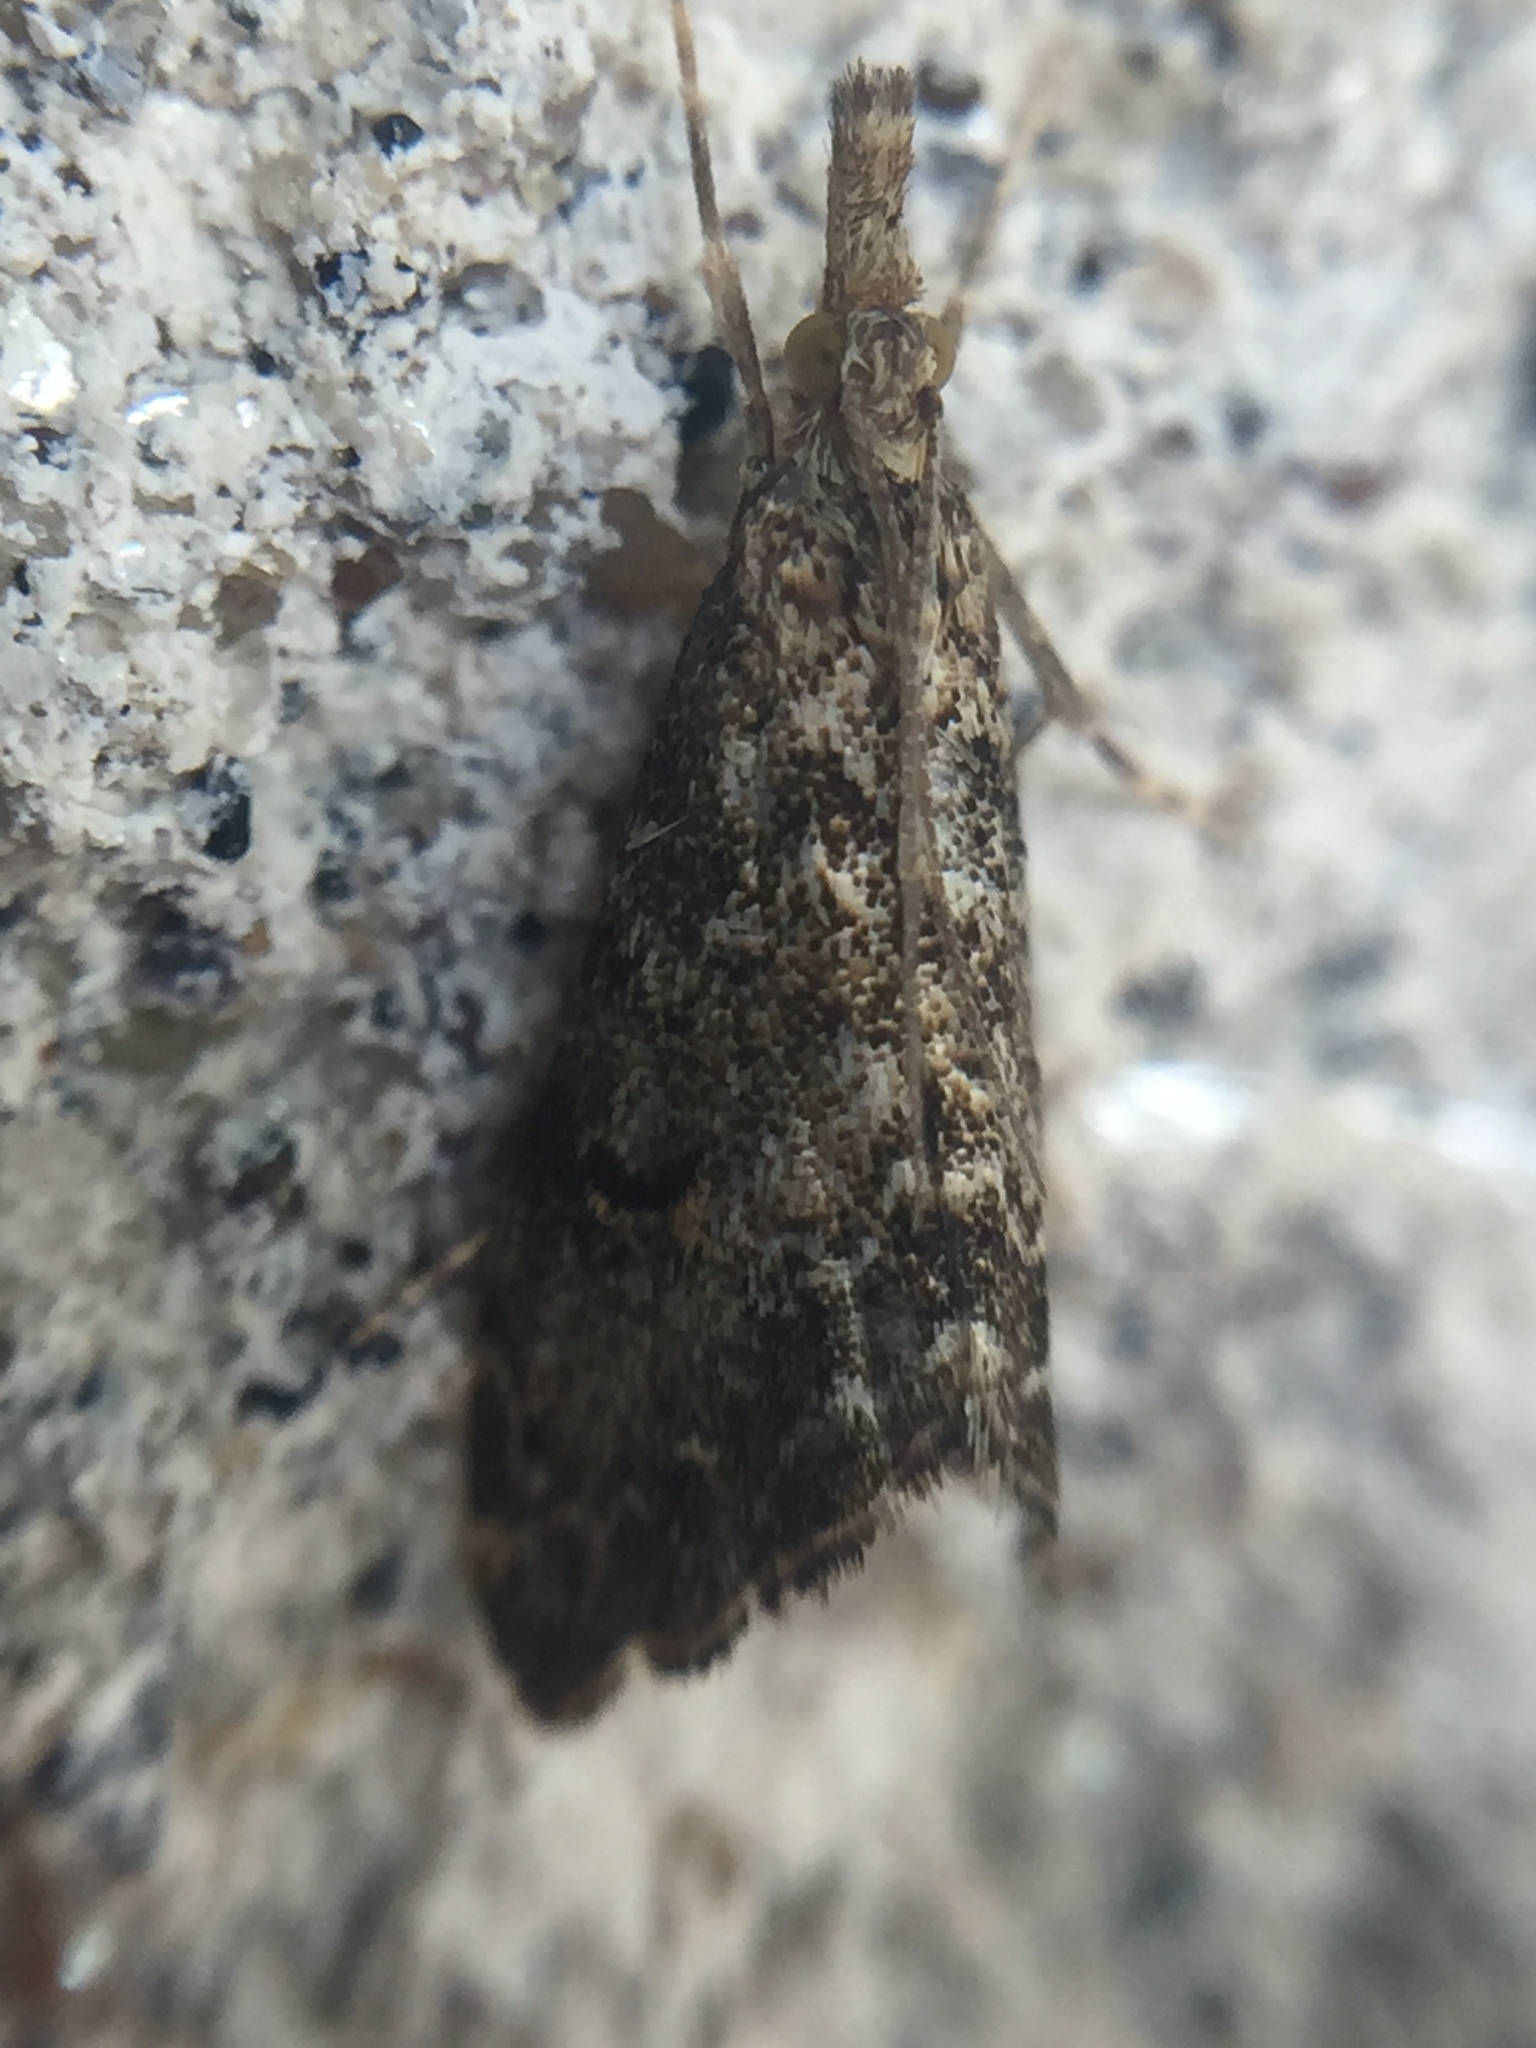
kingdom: Animalia
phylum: Arthropoda
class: Insecta
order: Lepidoptera
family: Crambidae
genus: Glaucocharis
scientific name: Glaucocharis elaina
